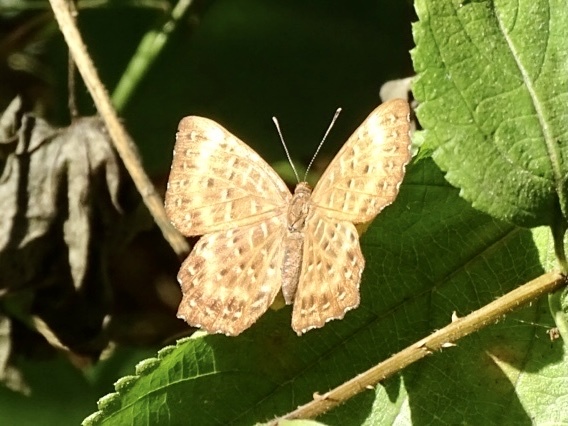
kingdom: Animalia
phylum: Arthropoda
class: Insecta
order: Lepidoptera
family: Riodinidae
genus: Zemeros
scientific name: Zemeros flegyas
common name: Punchinello
